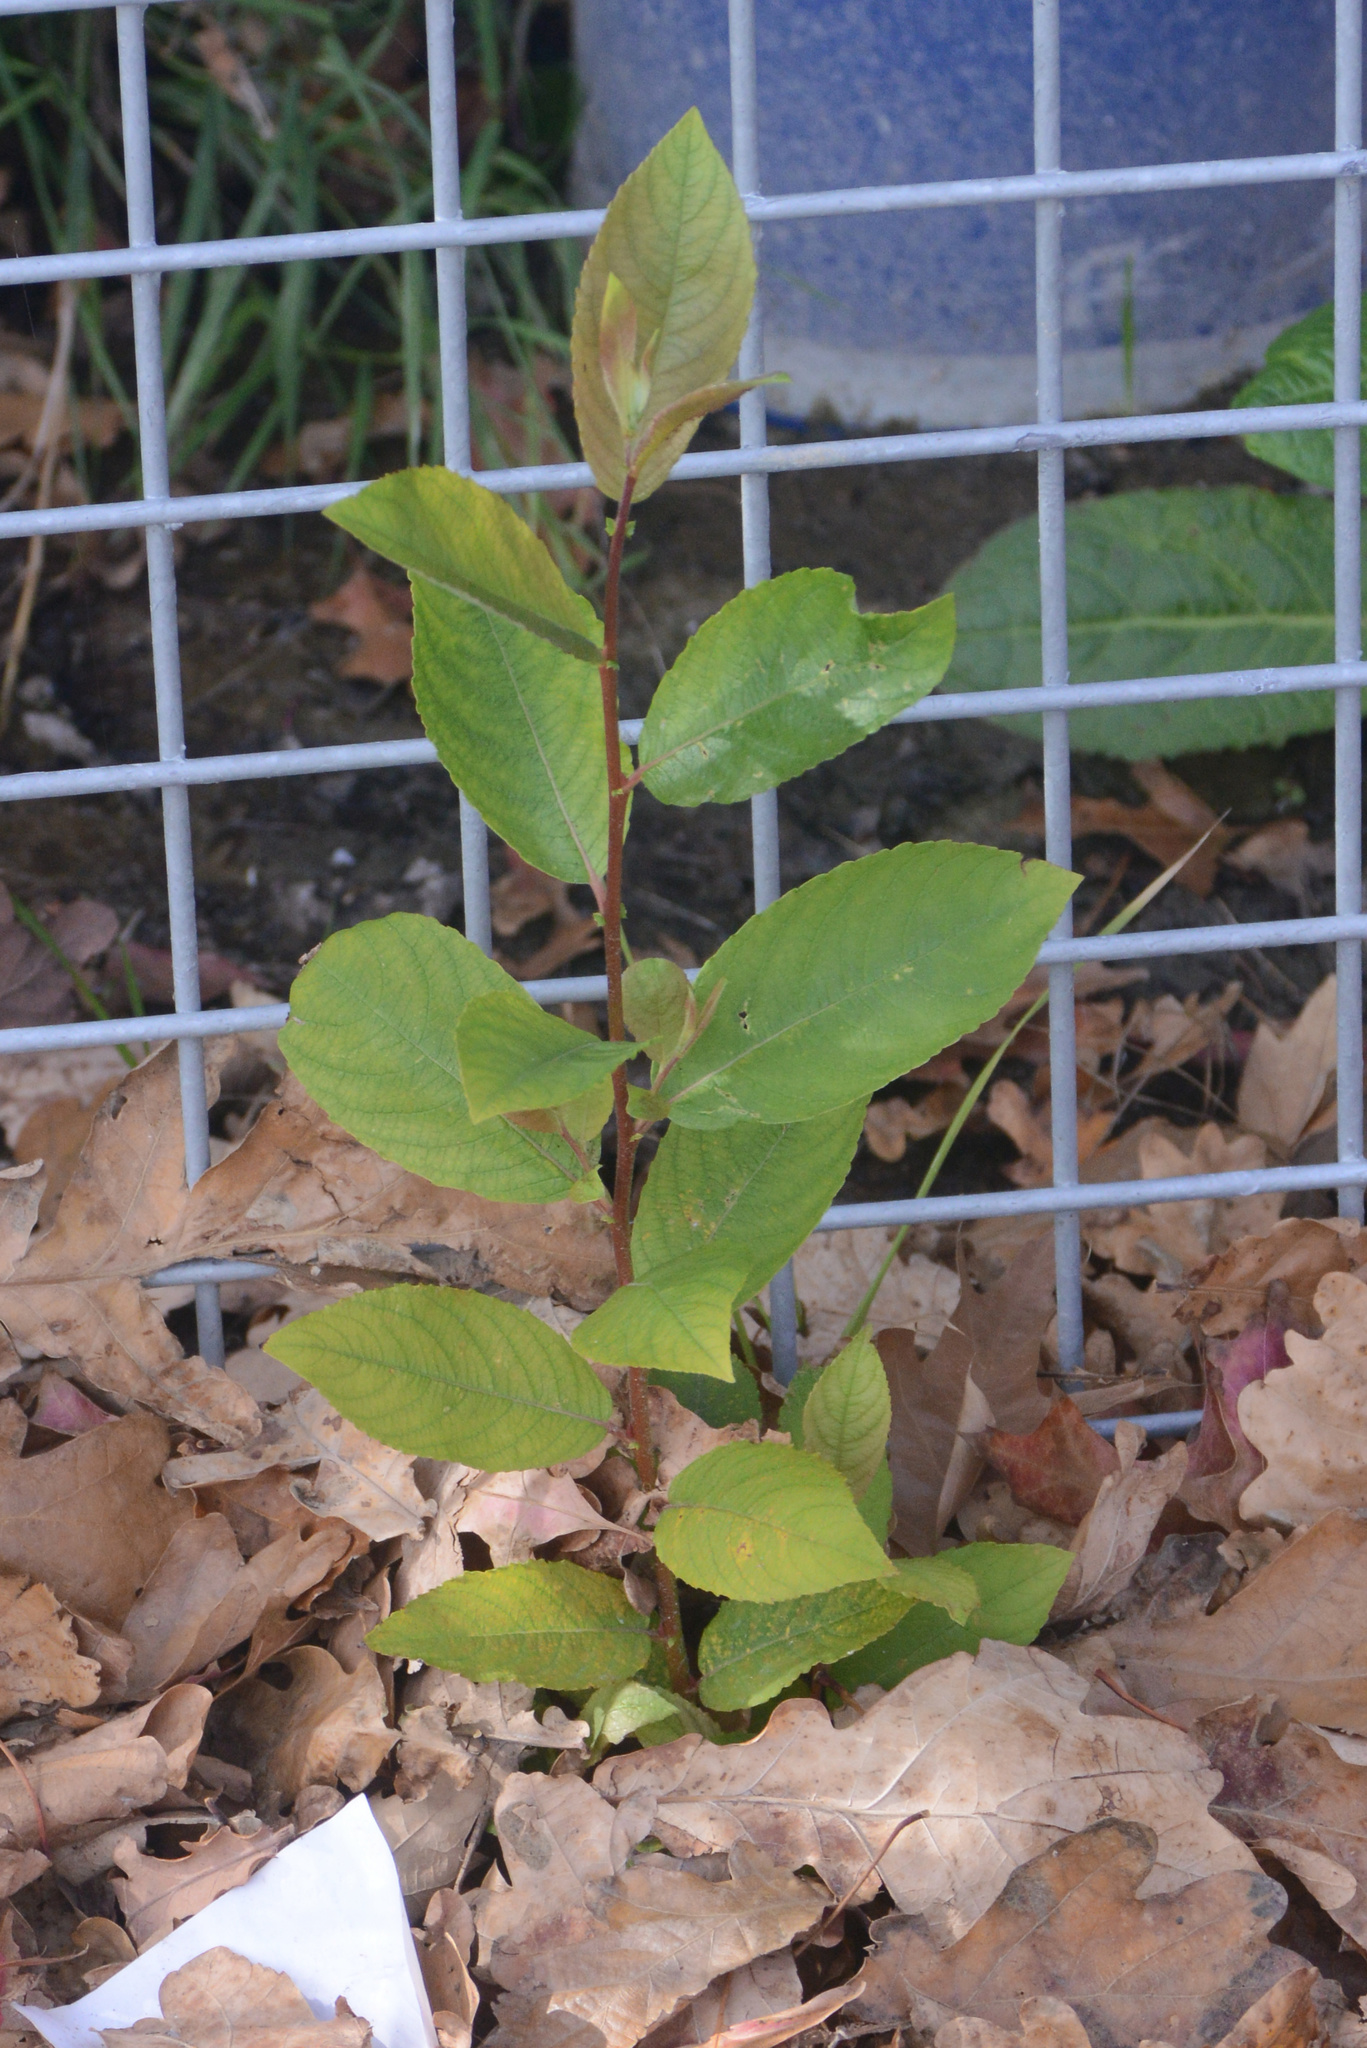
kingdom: Plantae
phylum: Tracheophyta
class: Magnoliopsida
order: Malpighiales
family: Salicaceae
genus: Salix
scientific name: Salix cinerea
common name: Common sallow
